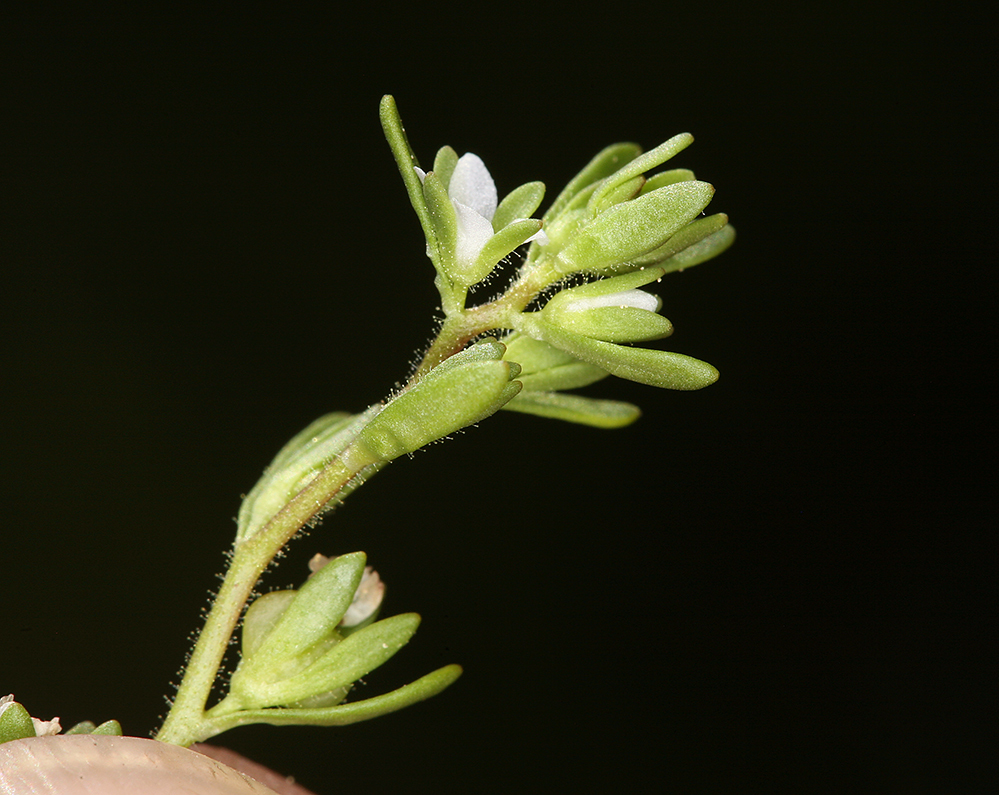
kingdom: Plantae
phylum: Tracheophyta
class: Magnoliopsida
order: Lamiales
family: Plantaginaceae
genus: Veronica
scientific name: Veronica peregrina
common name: Neckweed
